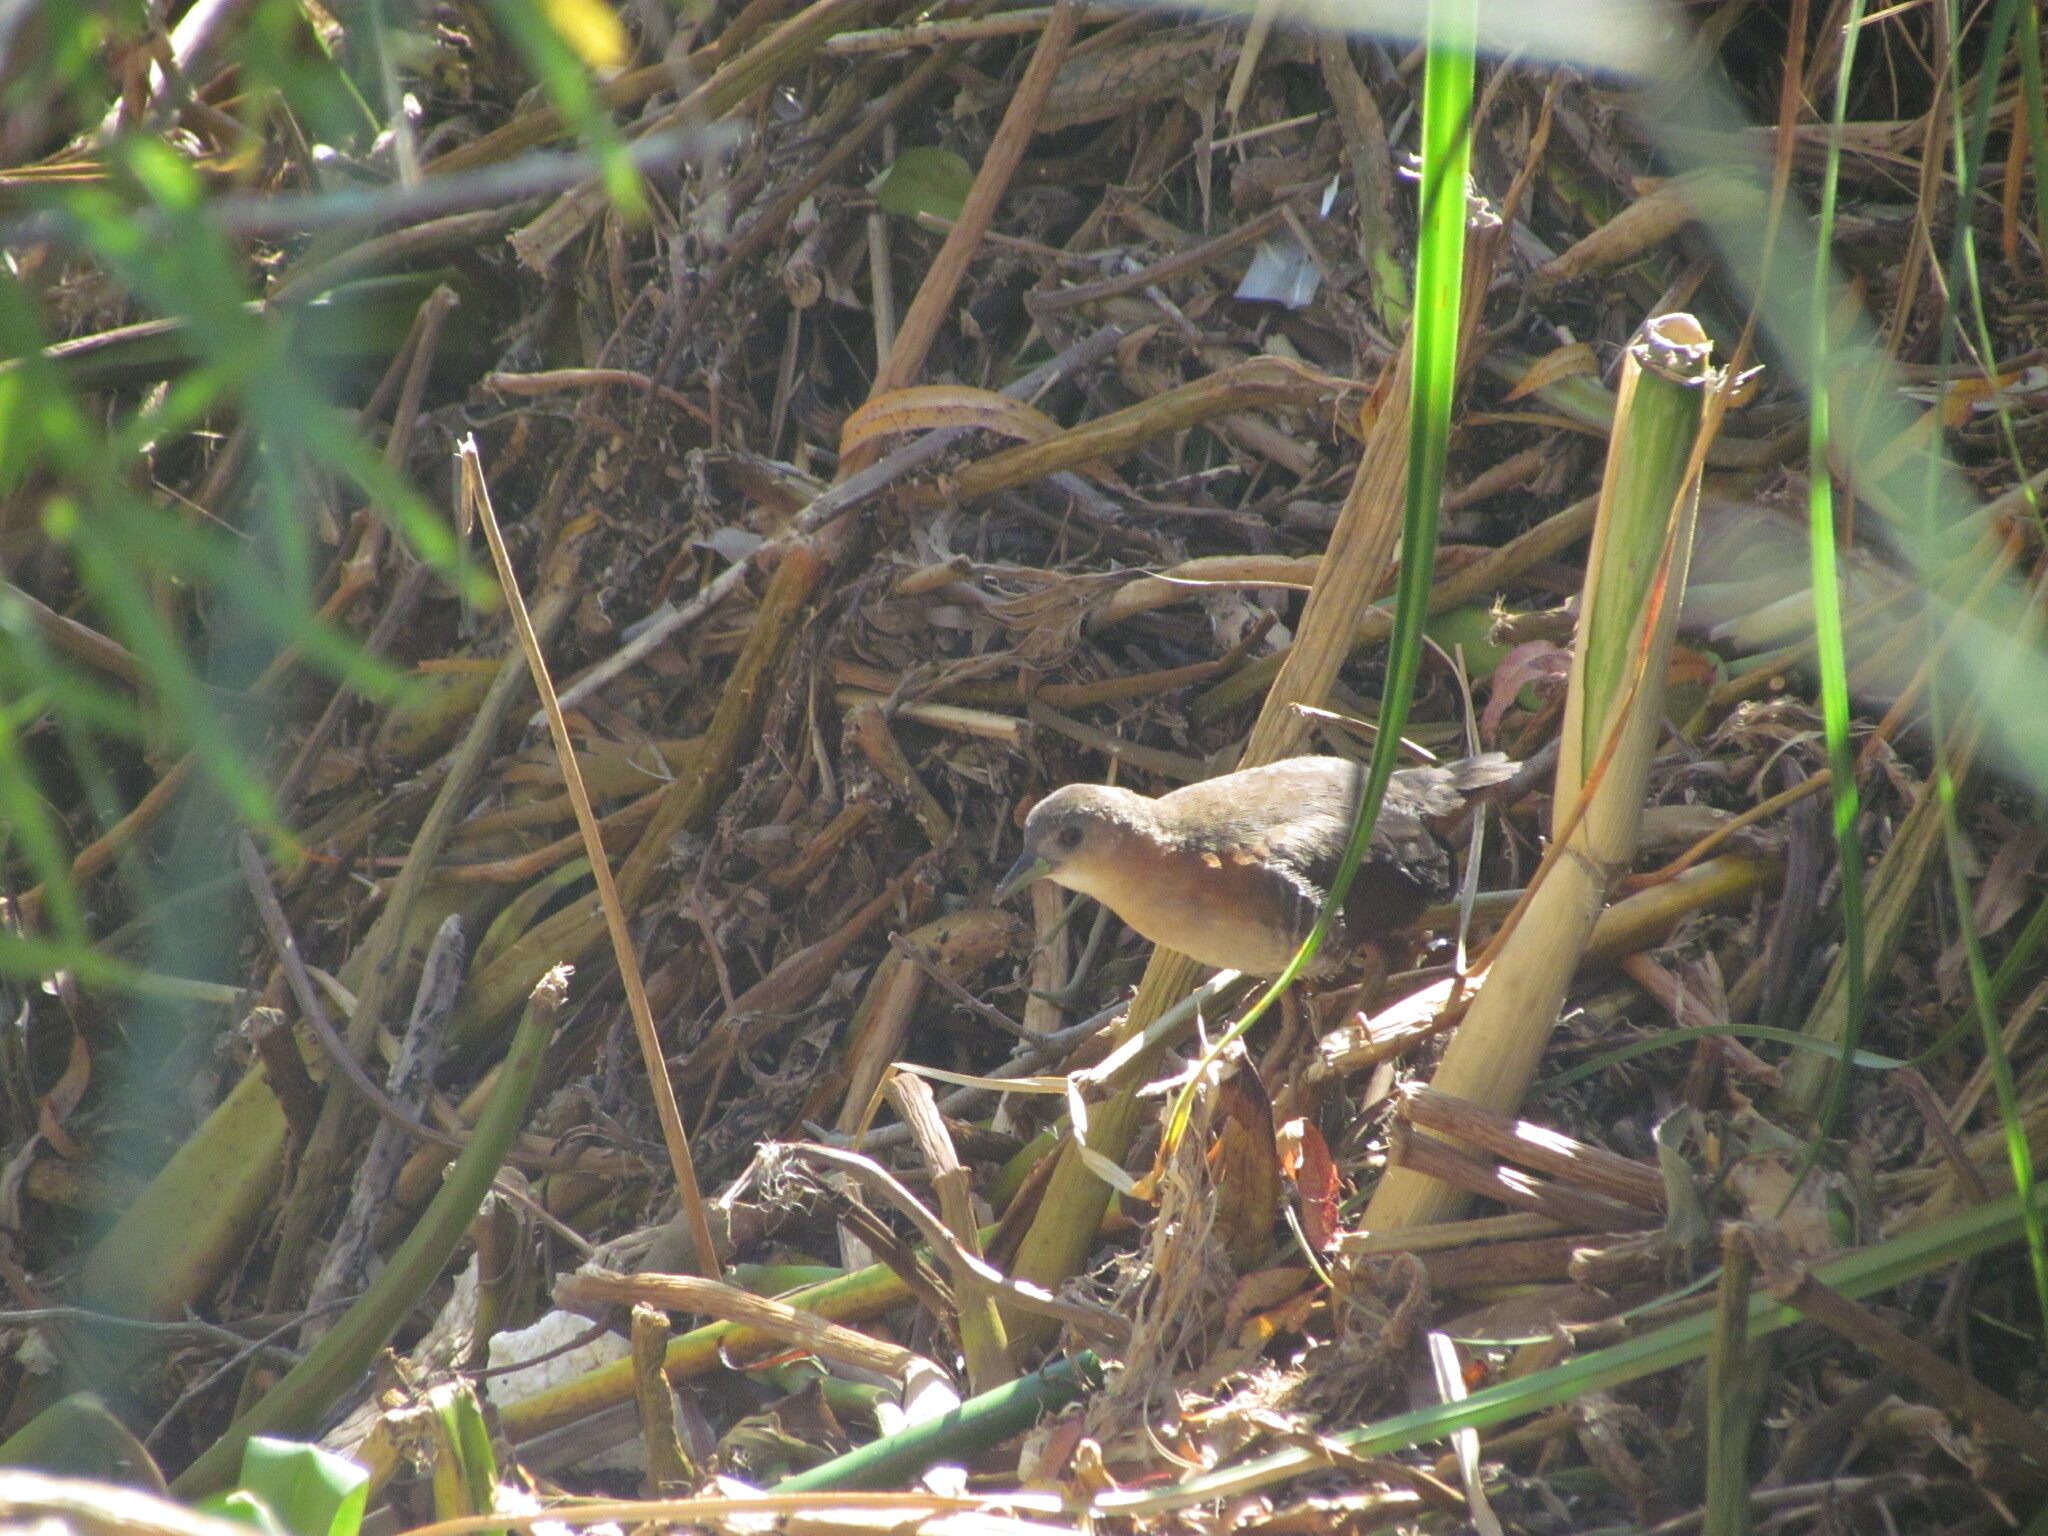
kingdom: Animalia
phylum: Chordata
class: Aves
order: Gruiformes
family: Rallidae
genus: Laterallus
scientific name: Laterallus melanophaius
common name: Rufous-sided crake
